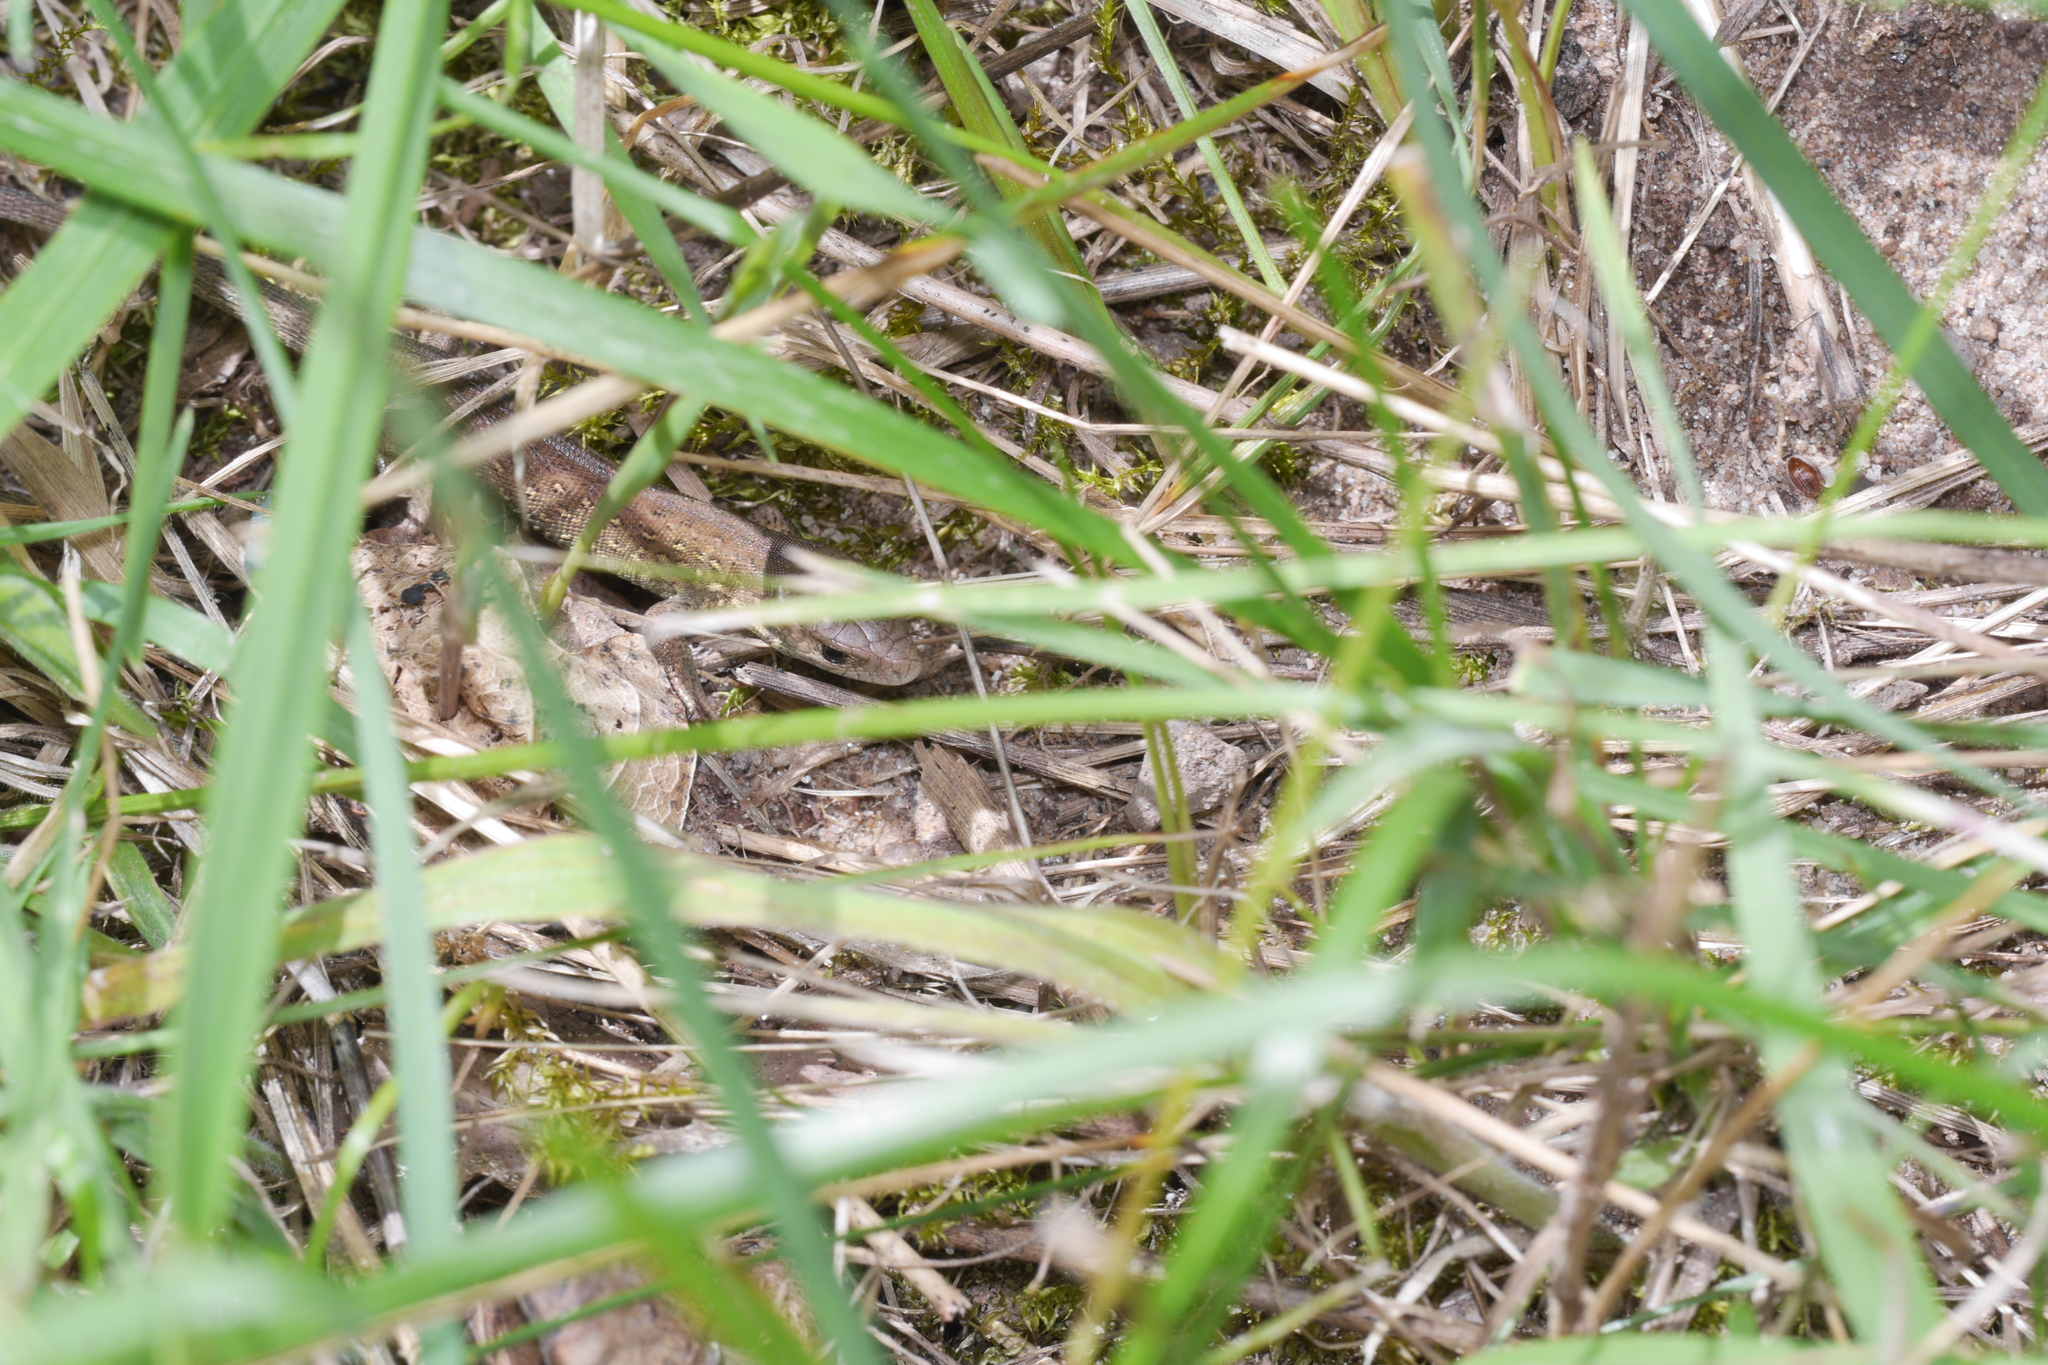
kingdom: Animalia
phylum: Chordata
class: Squamata
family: Lacertidae
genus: Lacerta
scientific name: Lacerta agilis
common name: Sand lizard
